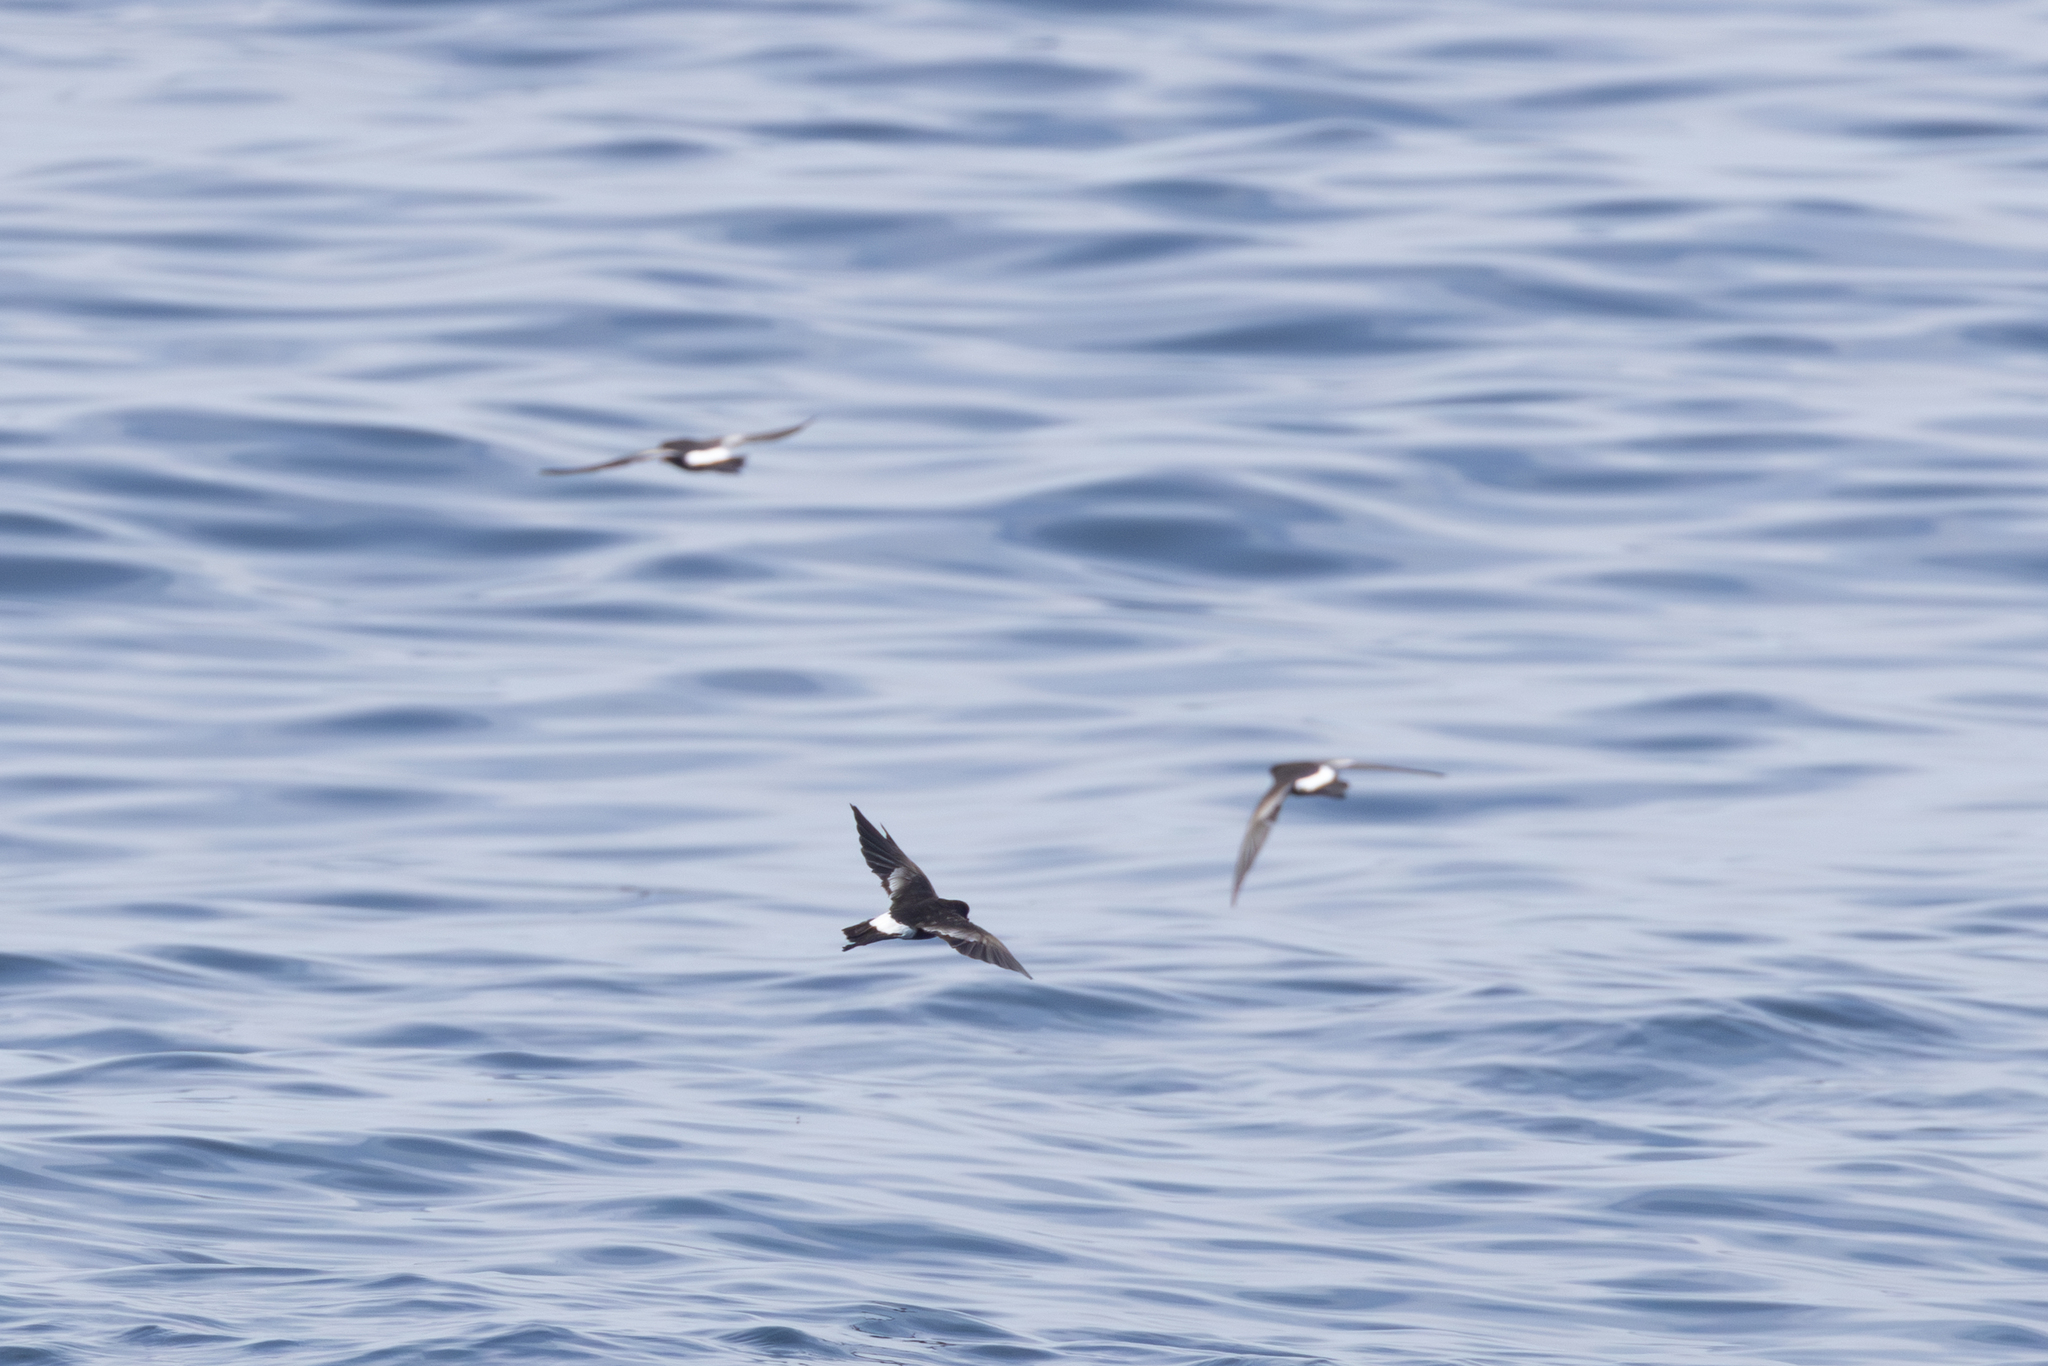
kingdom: Animalia
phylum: Chordata
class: Aves
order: Procellariiformes
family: Hydrobatidae
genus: Oceanites
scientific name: Oceanites oceanicus
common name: Wilson's storm petrel
